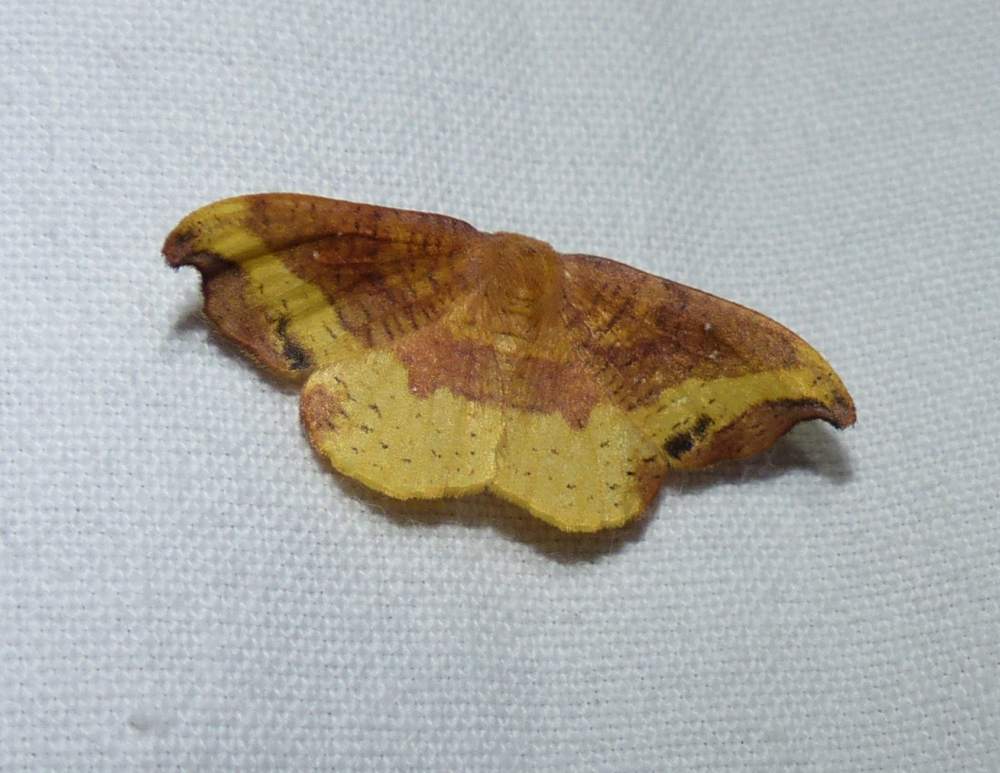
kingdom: Animalia
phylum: Arthropoda
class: Insecta
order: Lepidoptera
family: Drepanidae
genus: Oreta
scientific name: Oreta rosea
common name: Rose hooktip
